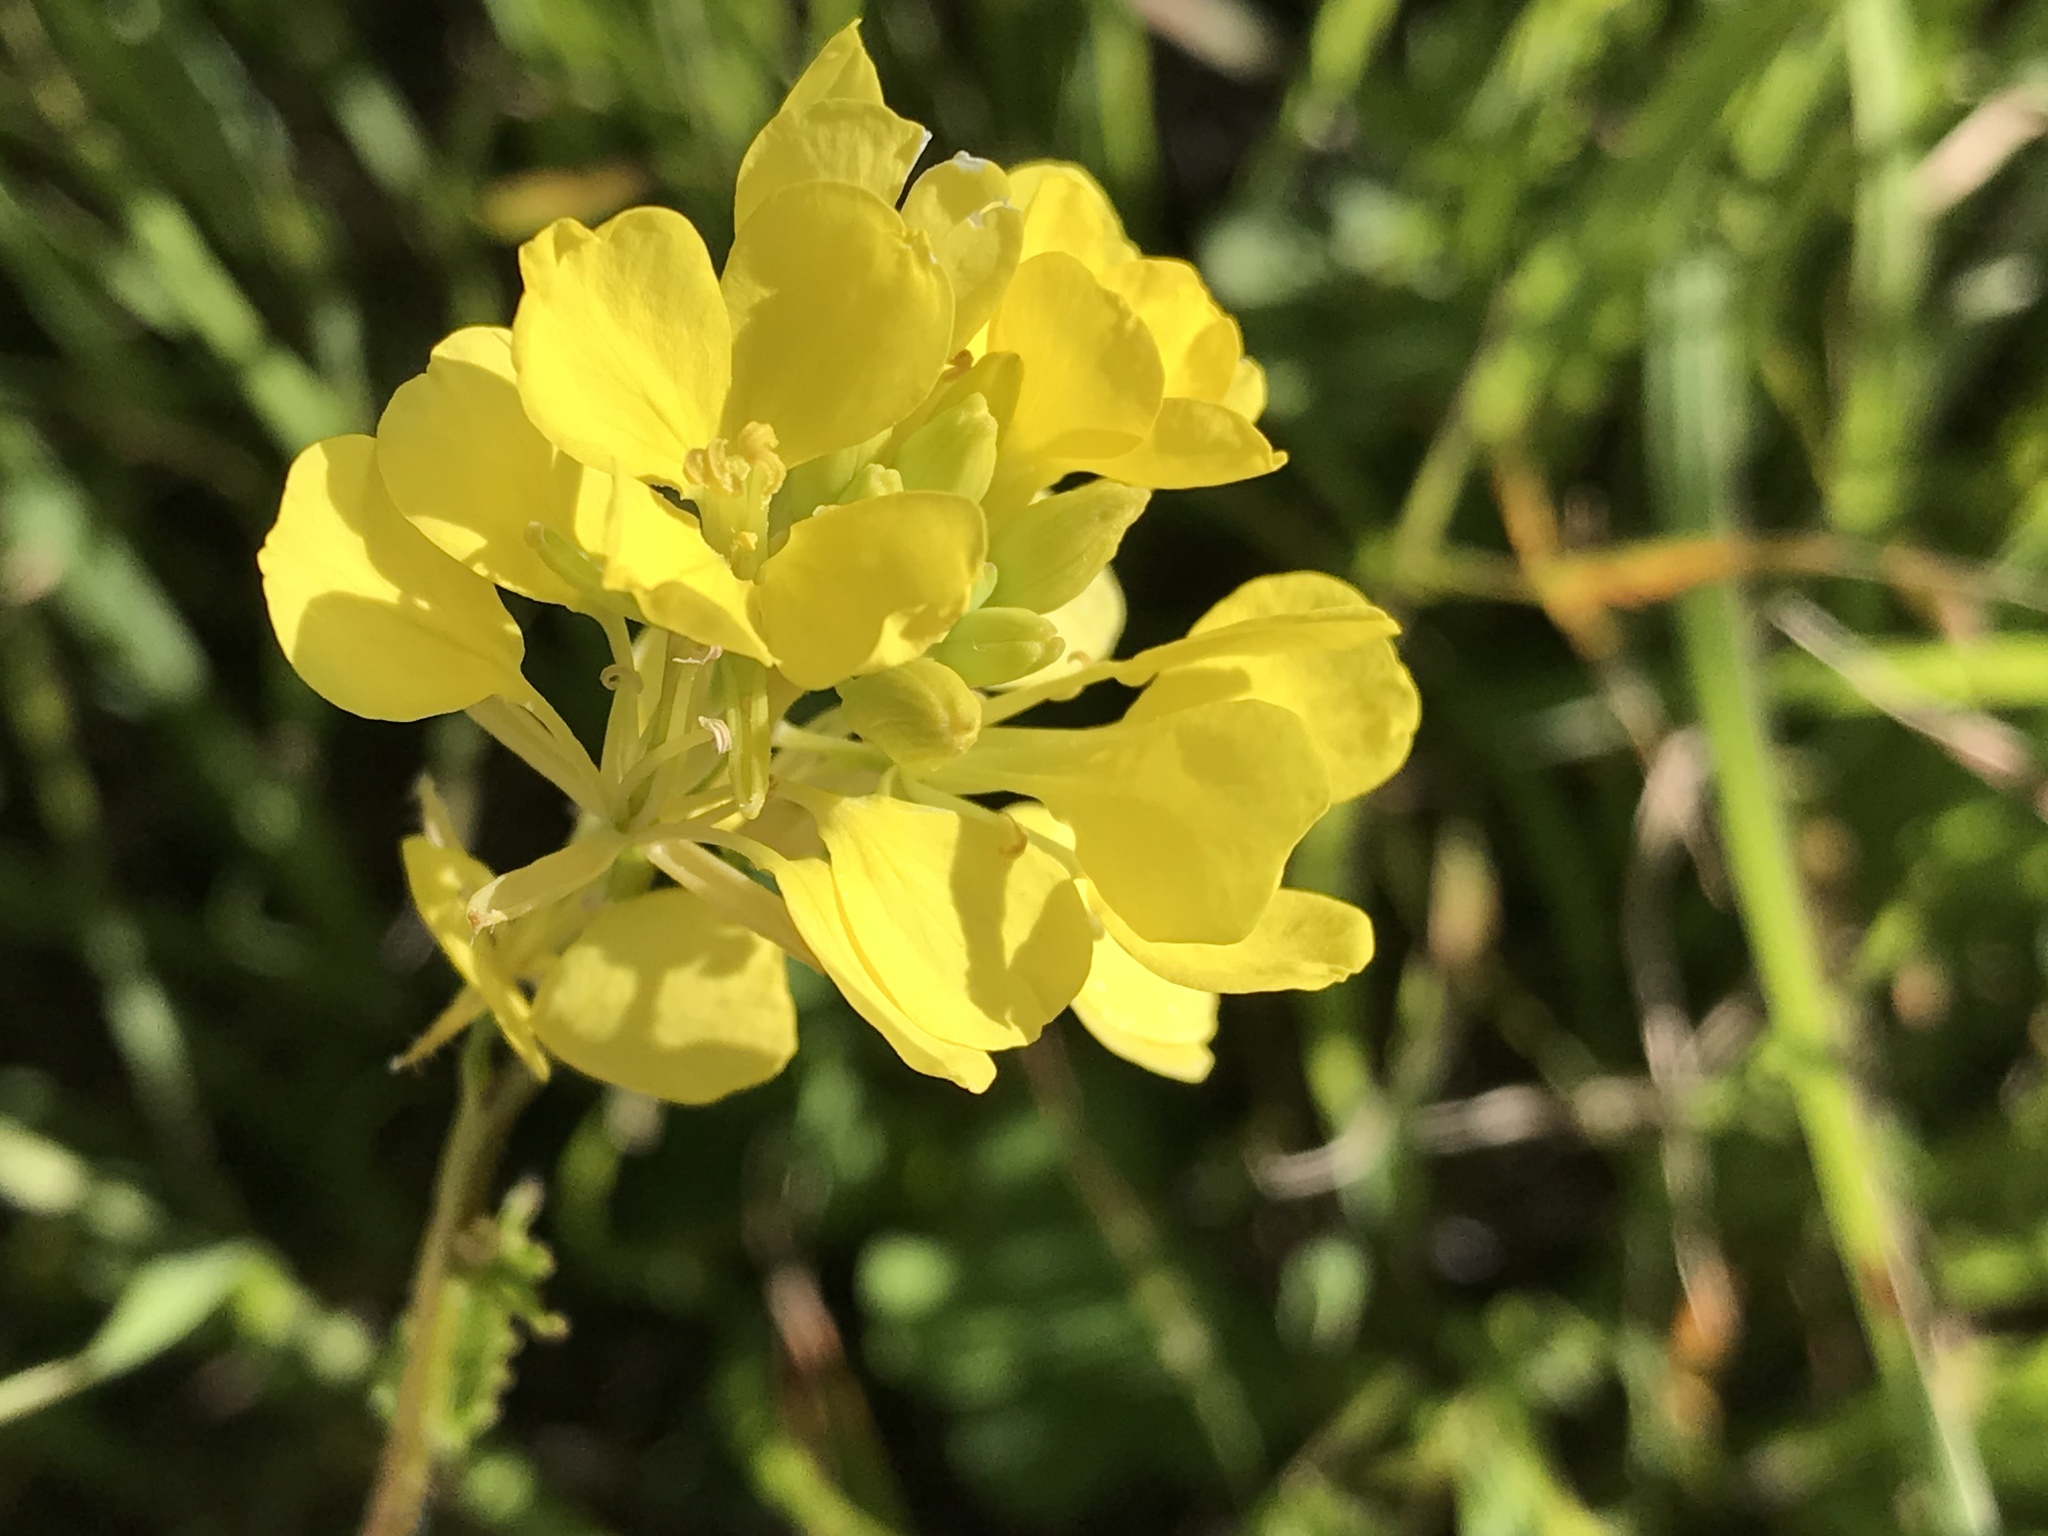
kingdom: Plantae
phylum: Tracheophyta
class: Magnoliopsida
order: Brassicales
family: Brassicaceae
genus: Brassica
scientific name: Brassica rapa
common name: Field mustard
